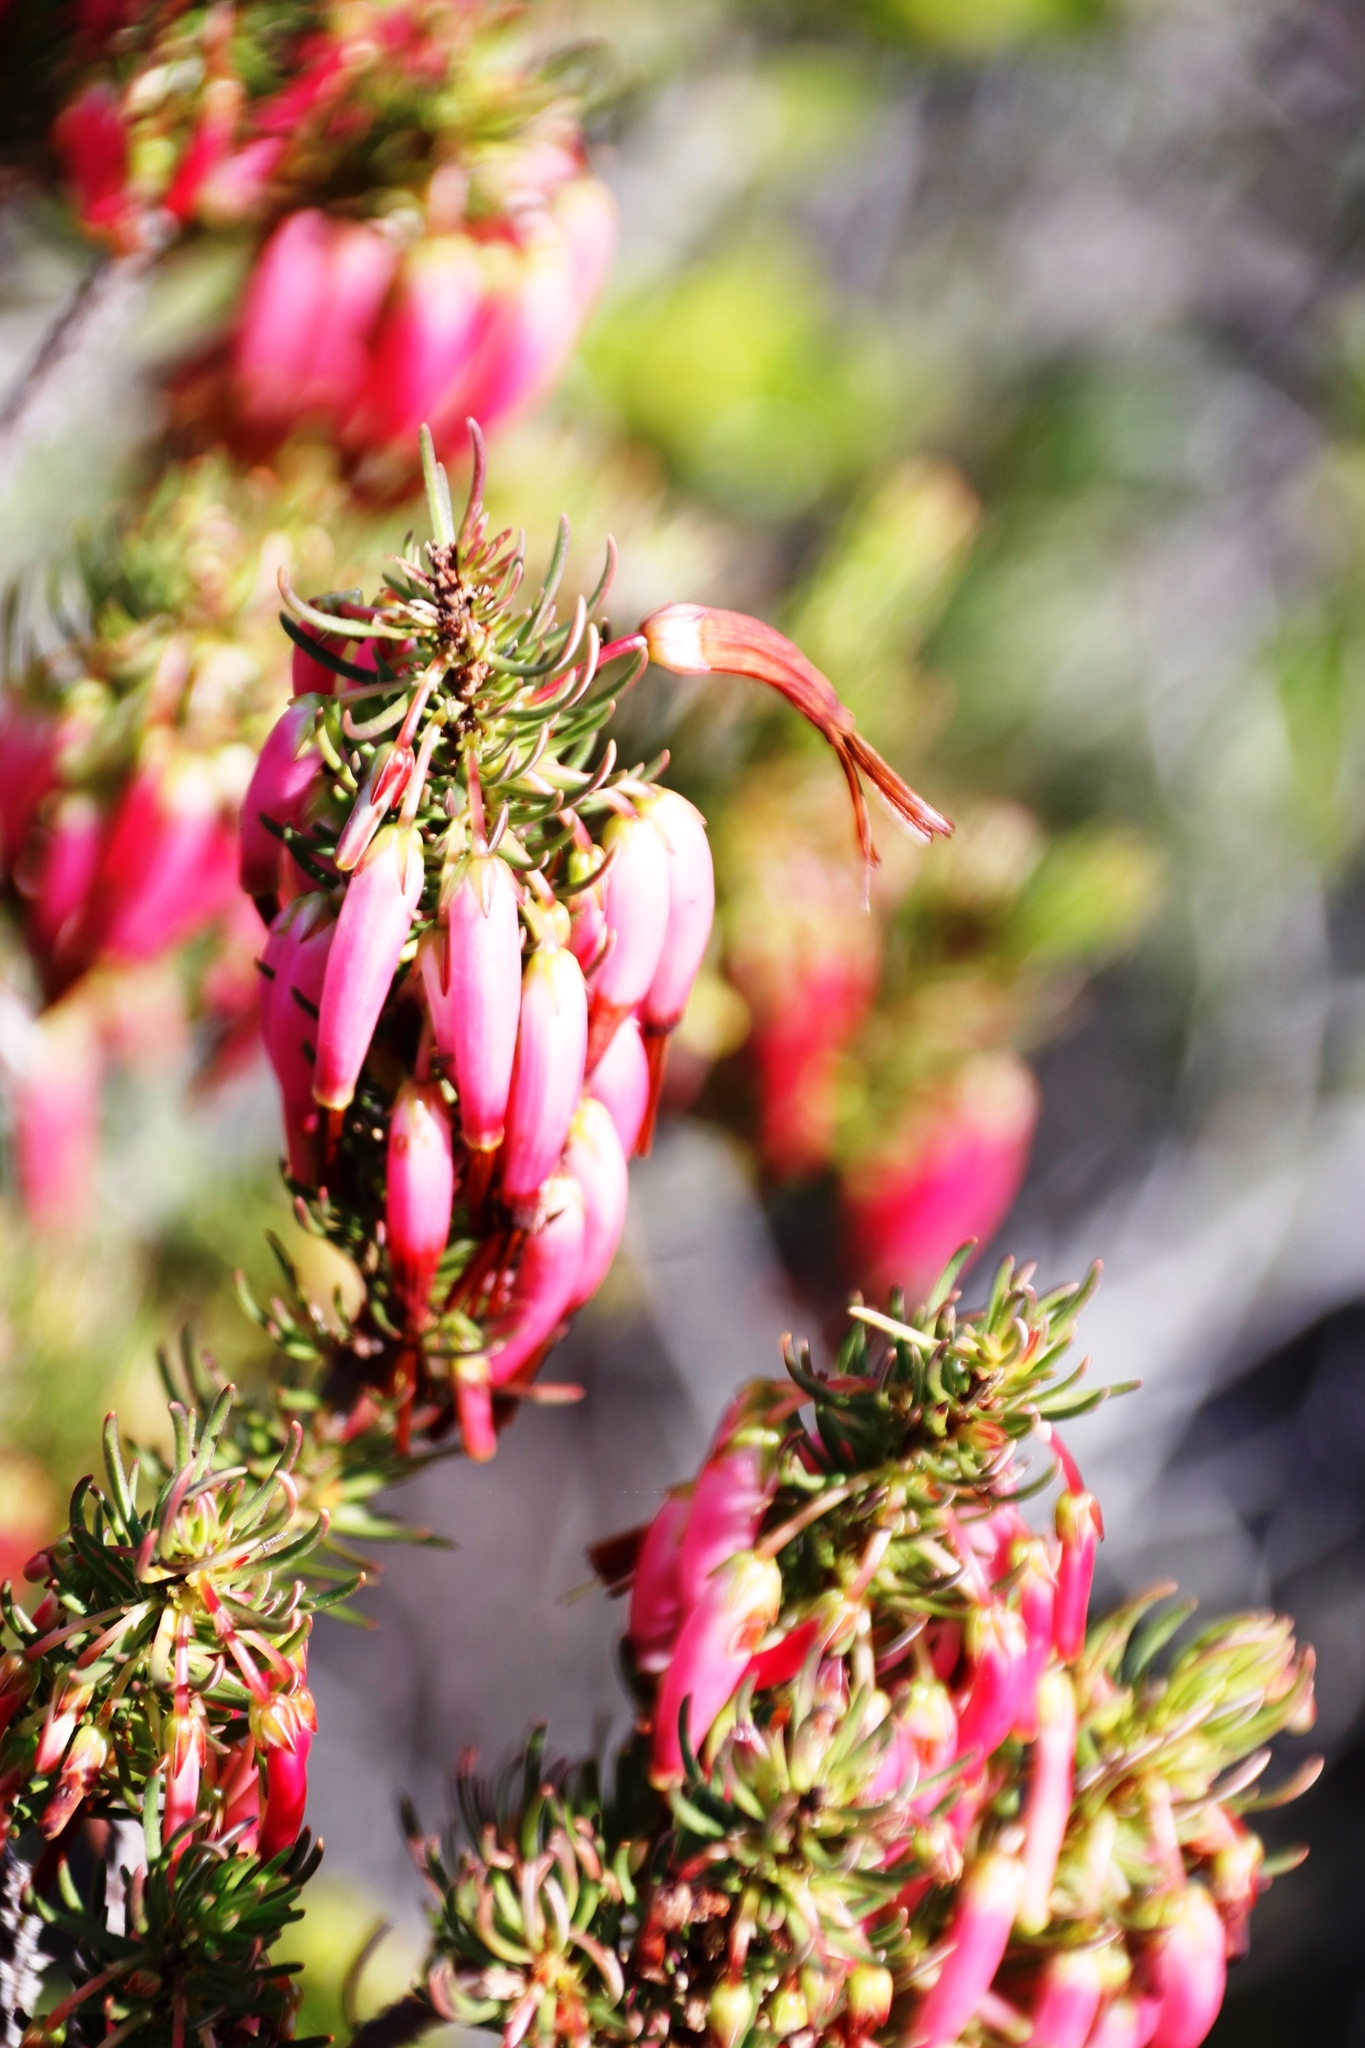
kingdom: Plantae
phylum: Tracheophyta
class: Magnoliopsida
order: Ericales
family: Ericaceae
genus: Erica
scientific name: Erica plukenetii
